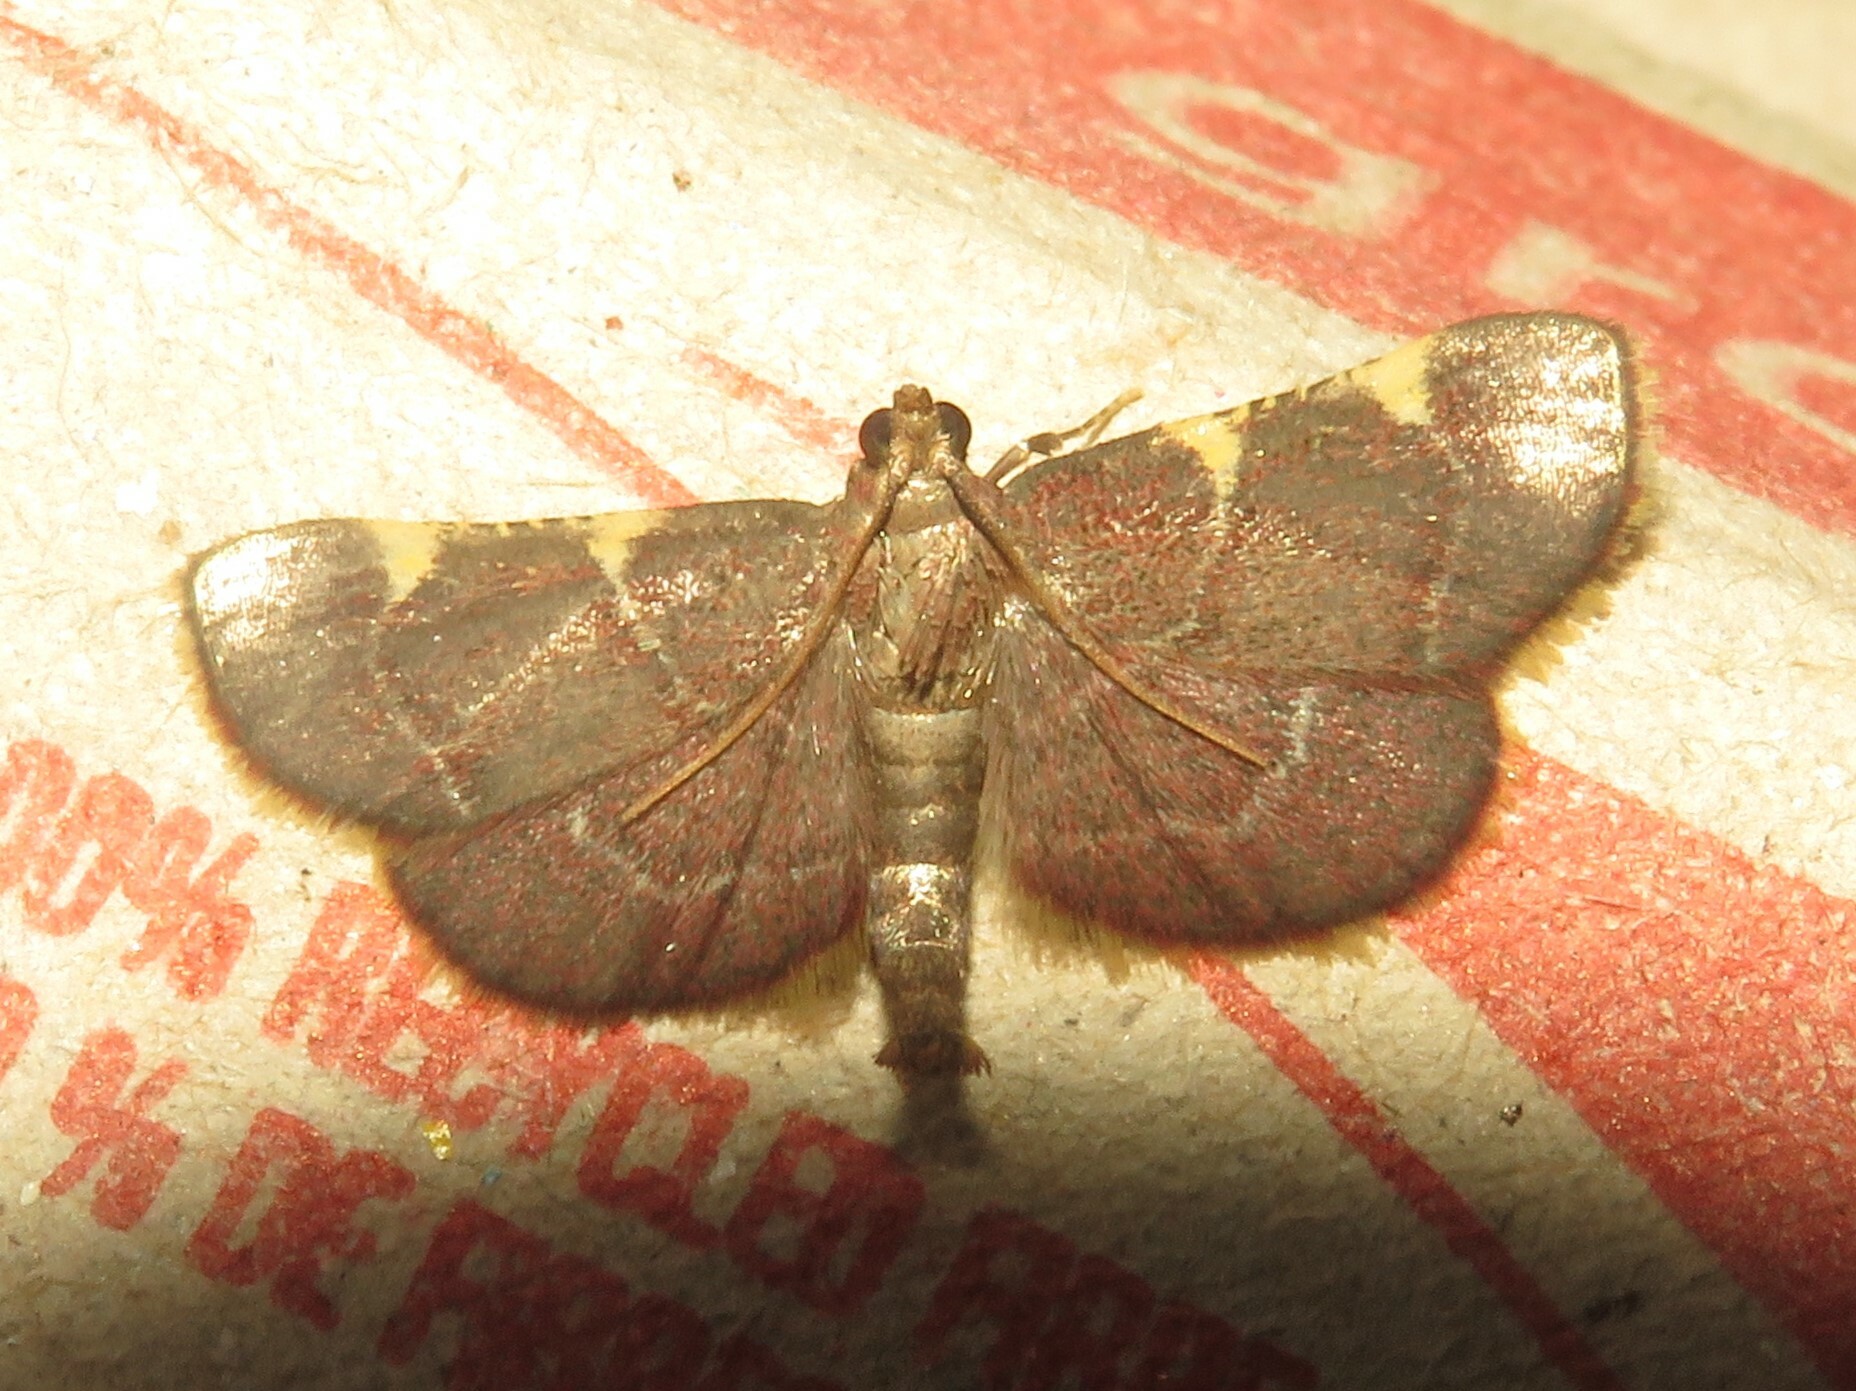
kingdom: Animalia
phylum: Arthropoda
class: Insecta
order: Lepidoptera
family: Pyralidae
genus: Hypsopygia
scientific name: Hypsopygia olinalis
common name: Yellow-fringed dolichomia moth
